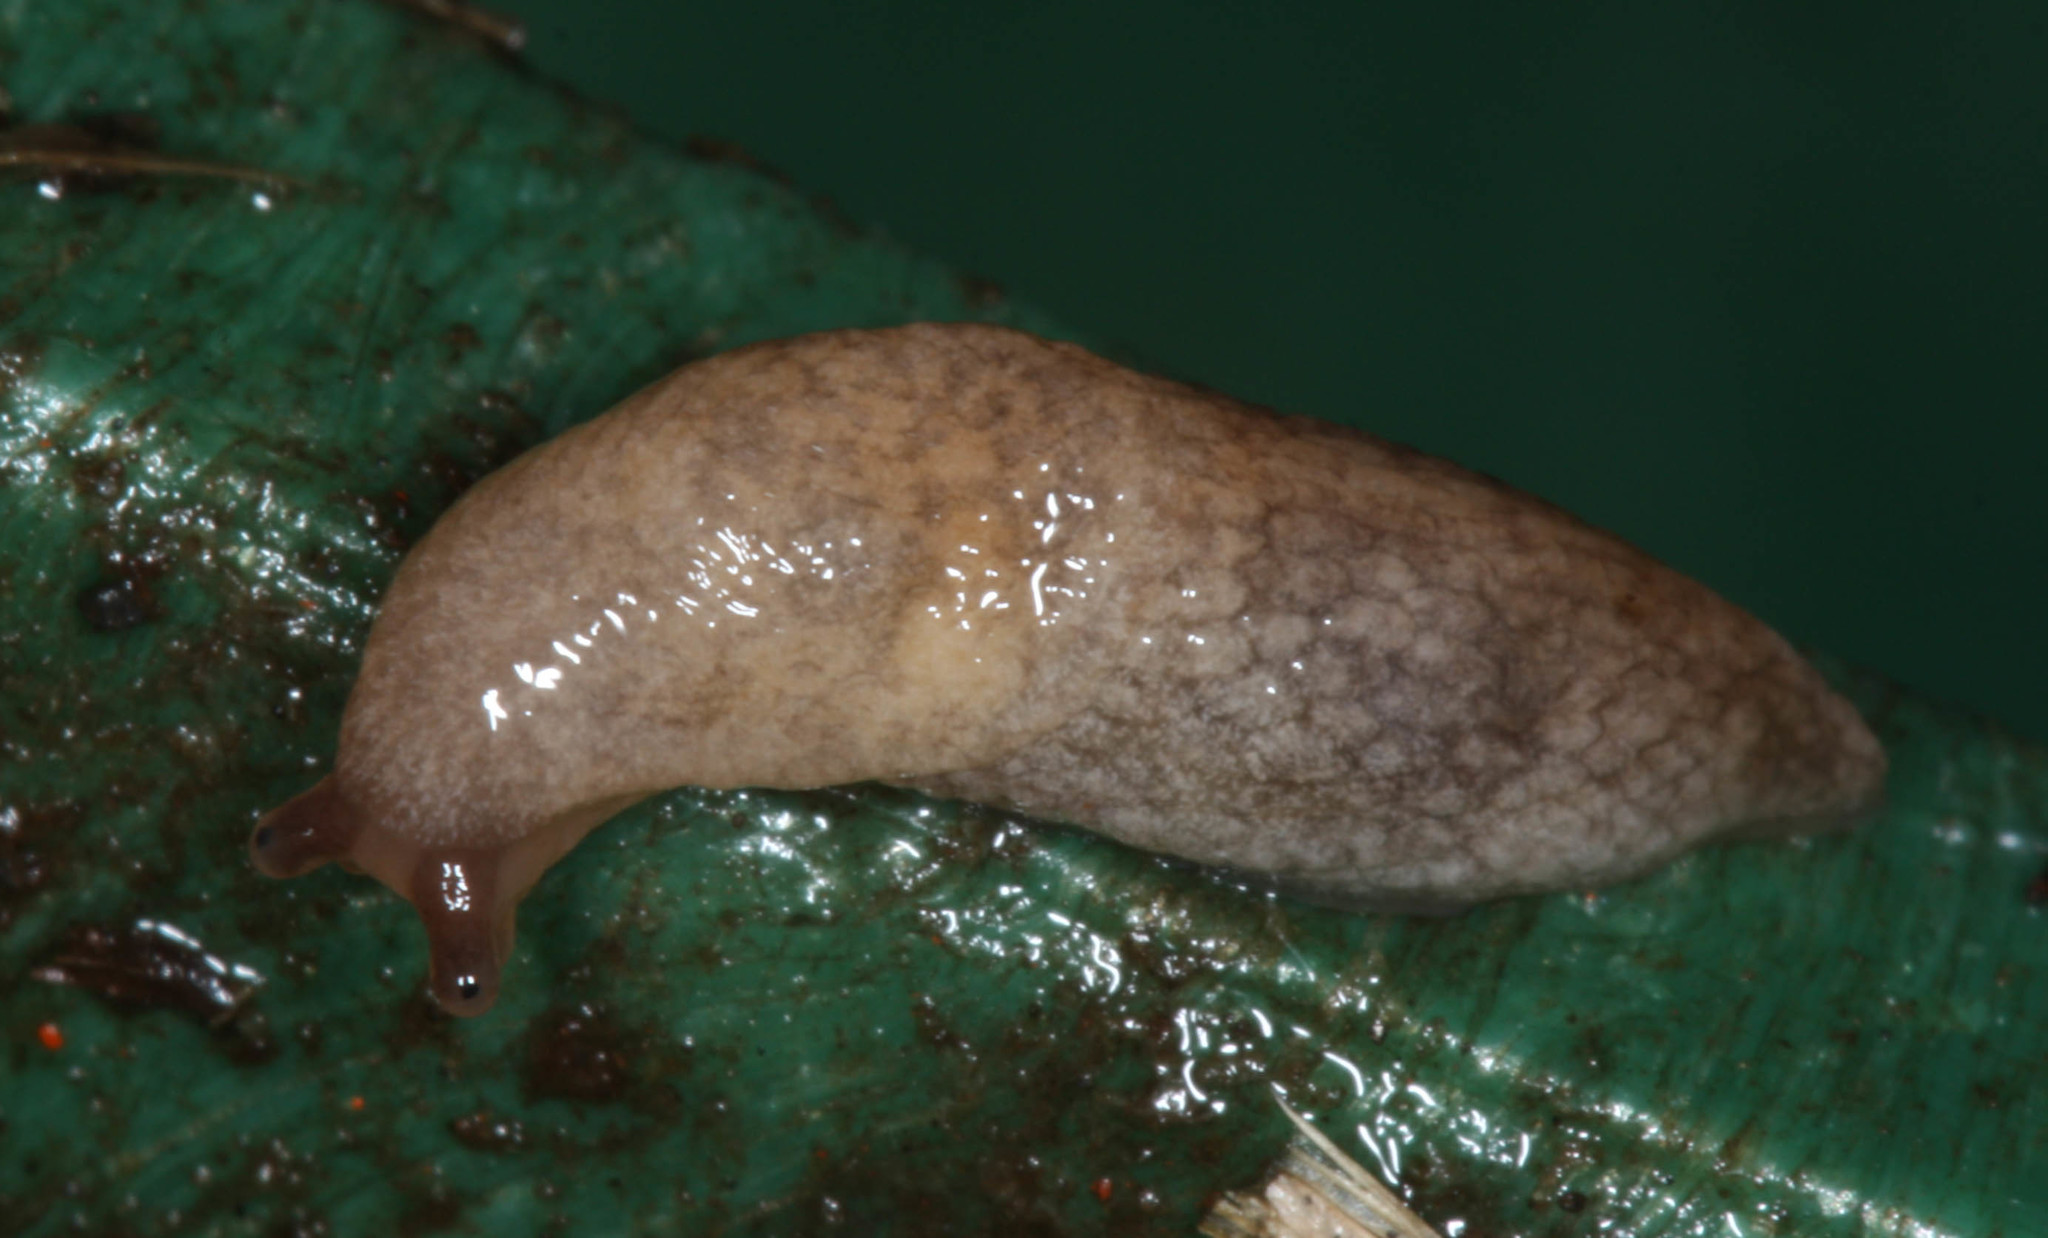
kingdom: Animalia
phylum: Mollusca
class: Gastropoda
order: Stylommatophora
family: Agriolimacidae
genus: Deroceras
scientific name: Deroceras reticulatum
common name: Gray field slug
